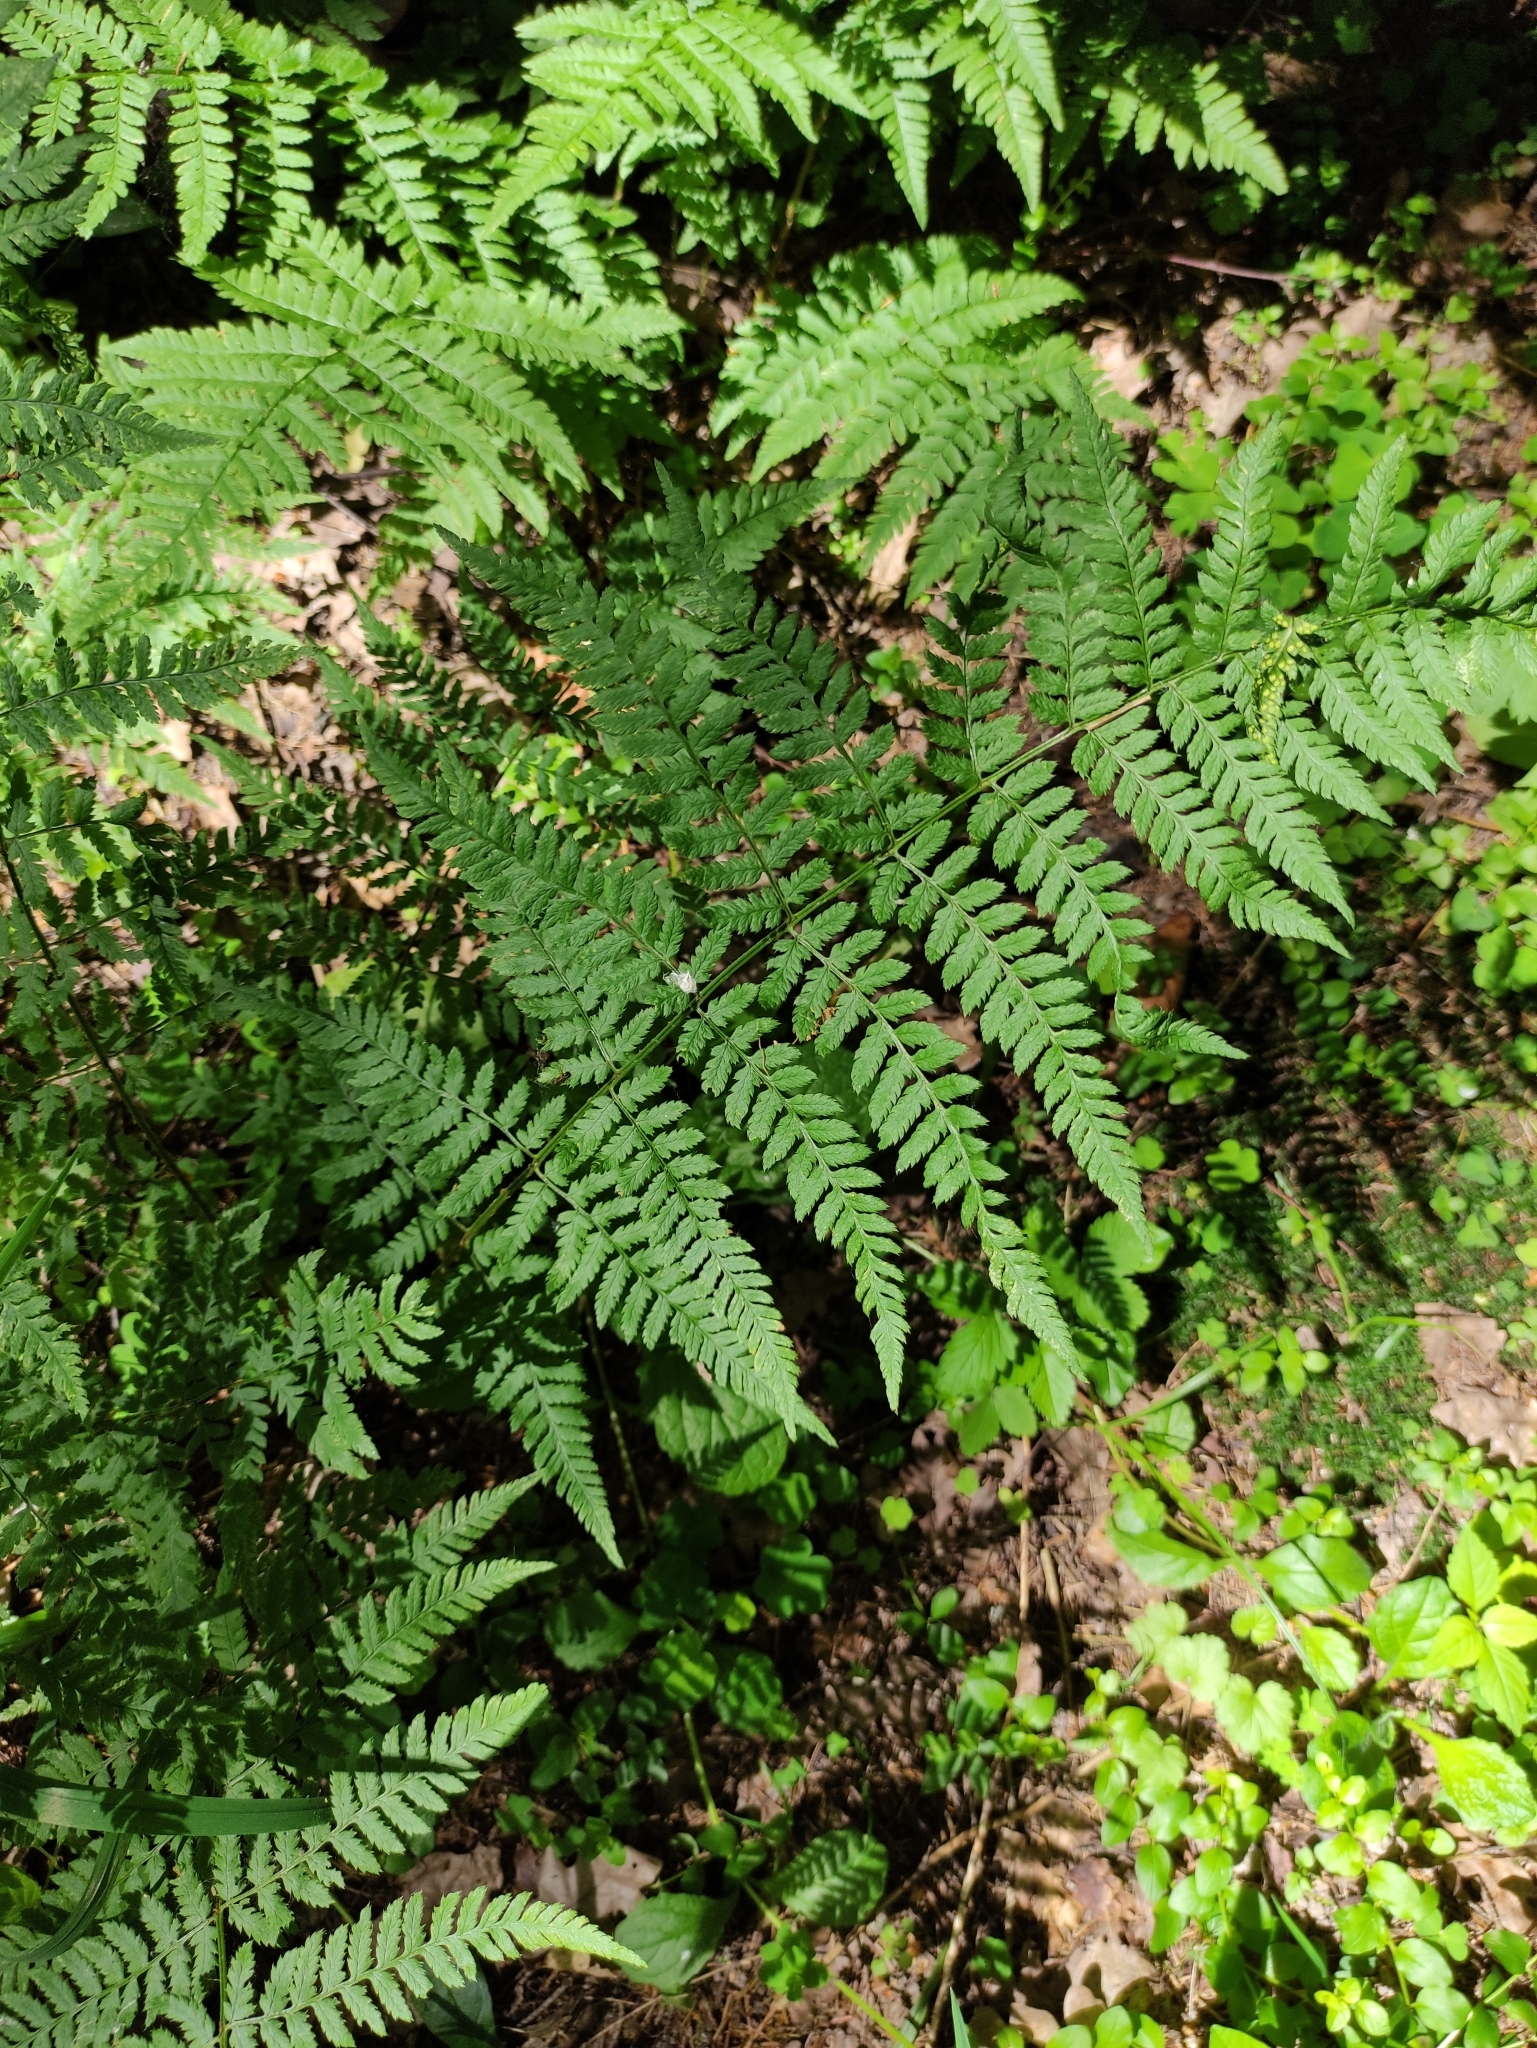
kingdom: Plantae
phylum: Tracheophyta
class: Polypodiopsida
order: Polypodiales
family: Dryopteridaceae
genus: Dryopteris
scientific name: Dryopteris carthusiana
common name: Narrow buckler-fern
